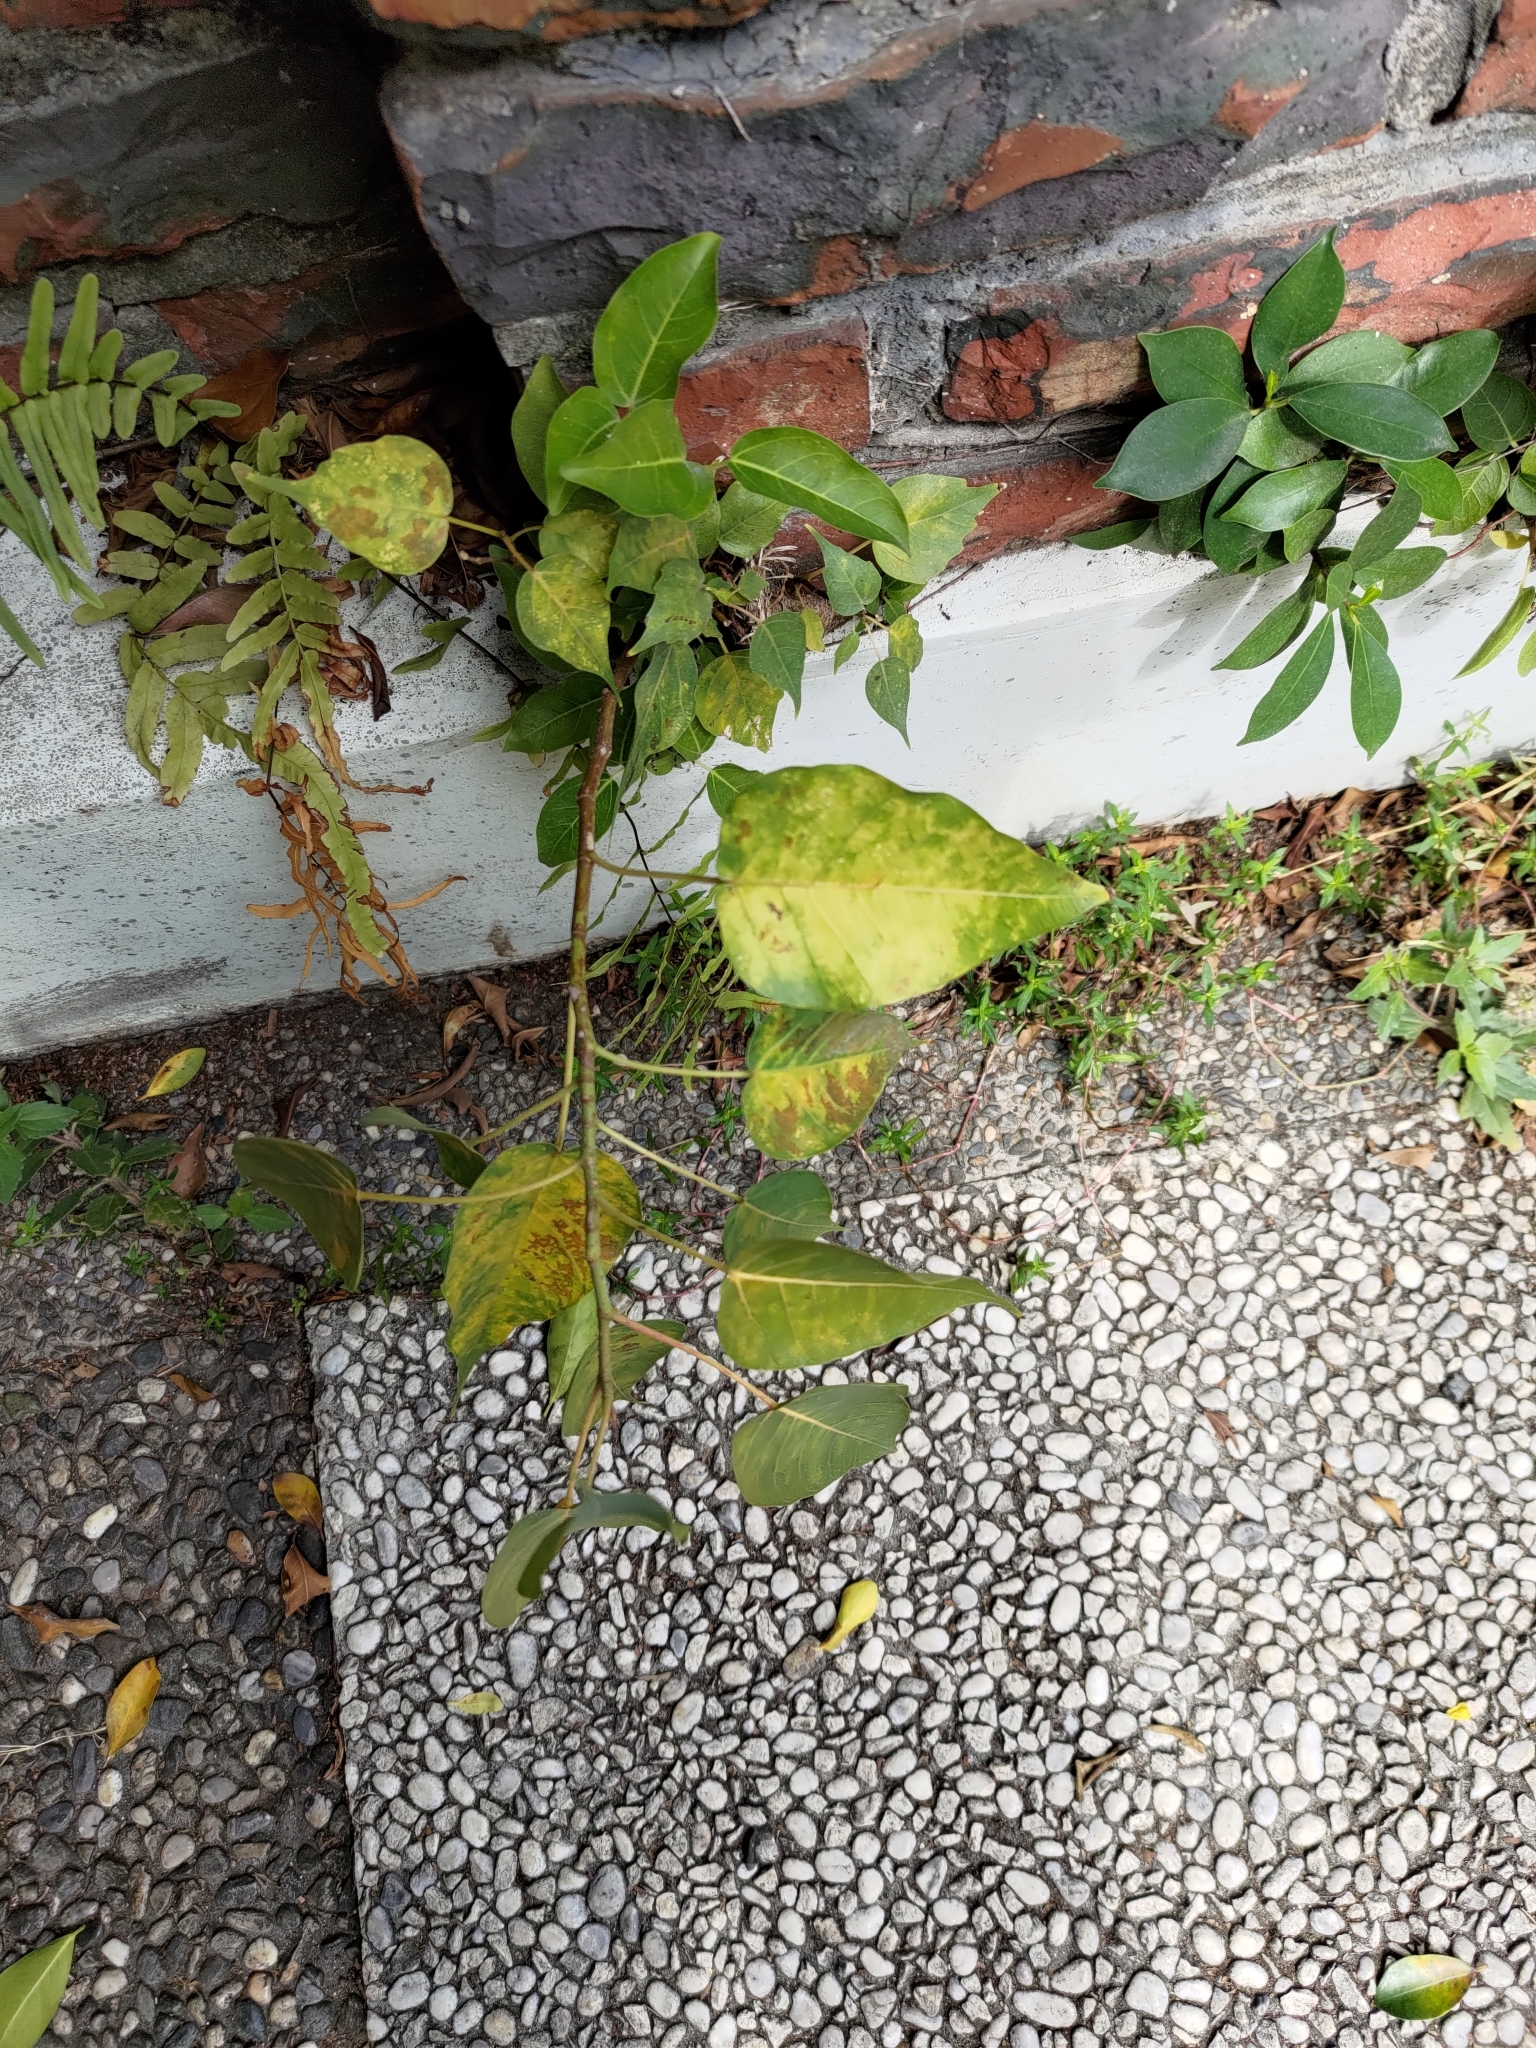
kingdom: Plantae
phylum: Tracheophyta
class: Magnoliopsida
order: Rosales
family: Moraceae
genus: Ficus
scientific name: Ficus religiosa
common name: Bodhi tree
